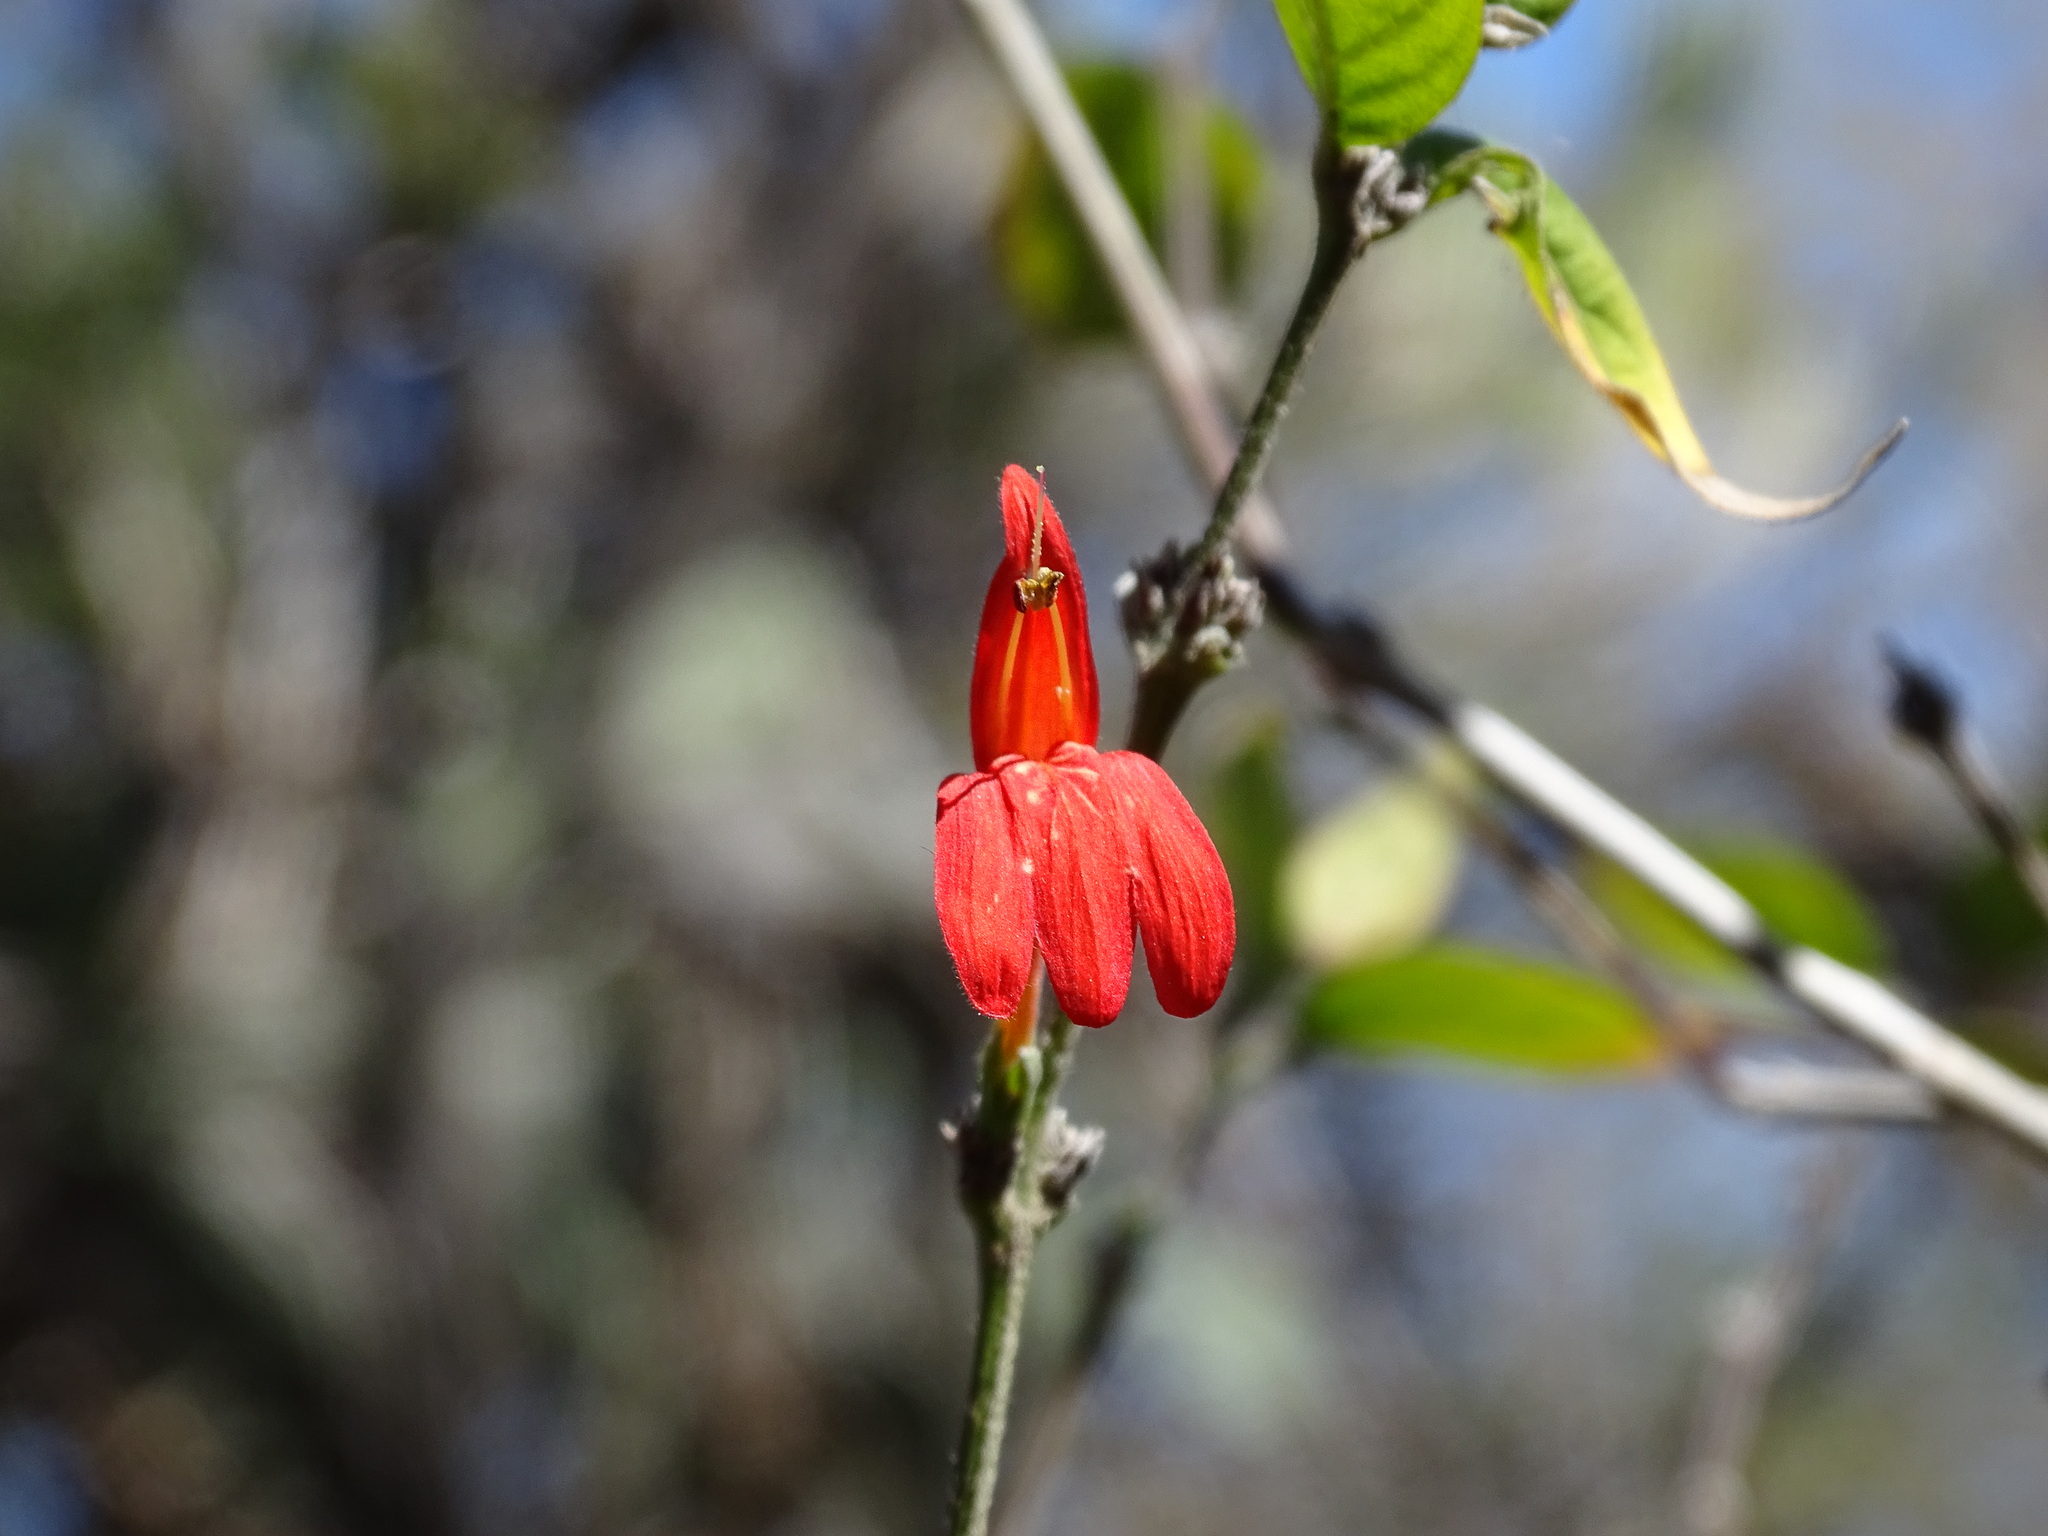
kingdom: Plantae
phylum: Tracheophyta
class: Magnoliopsida
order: Lamiales
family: Acanthaceae
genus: Dianthera
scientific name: Dianthera candicans
